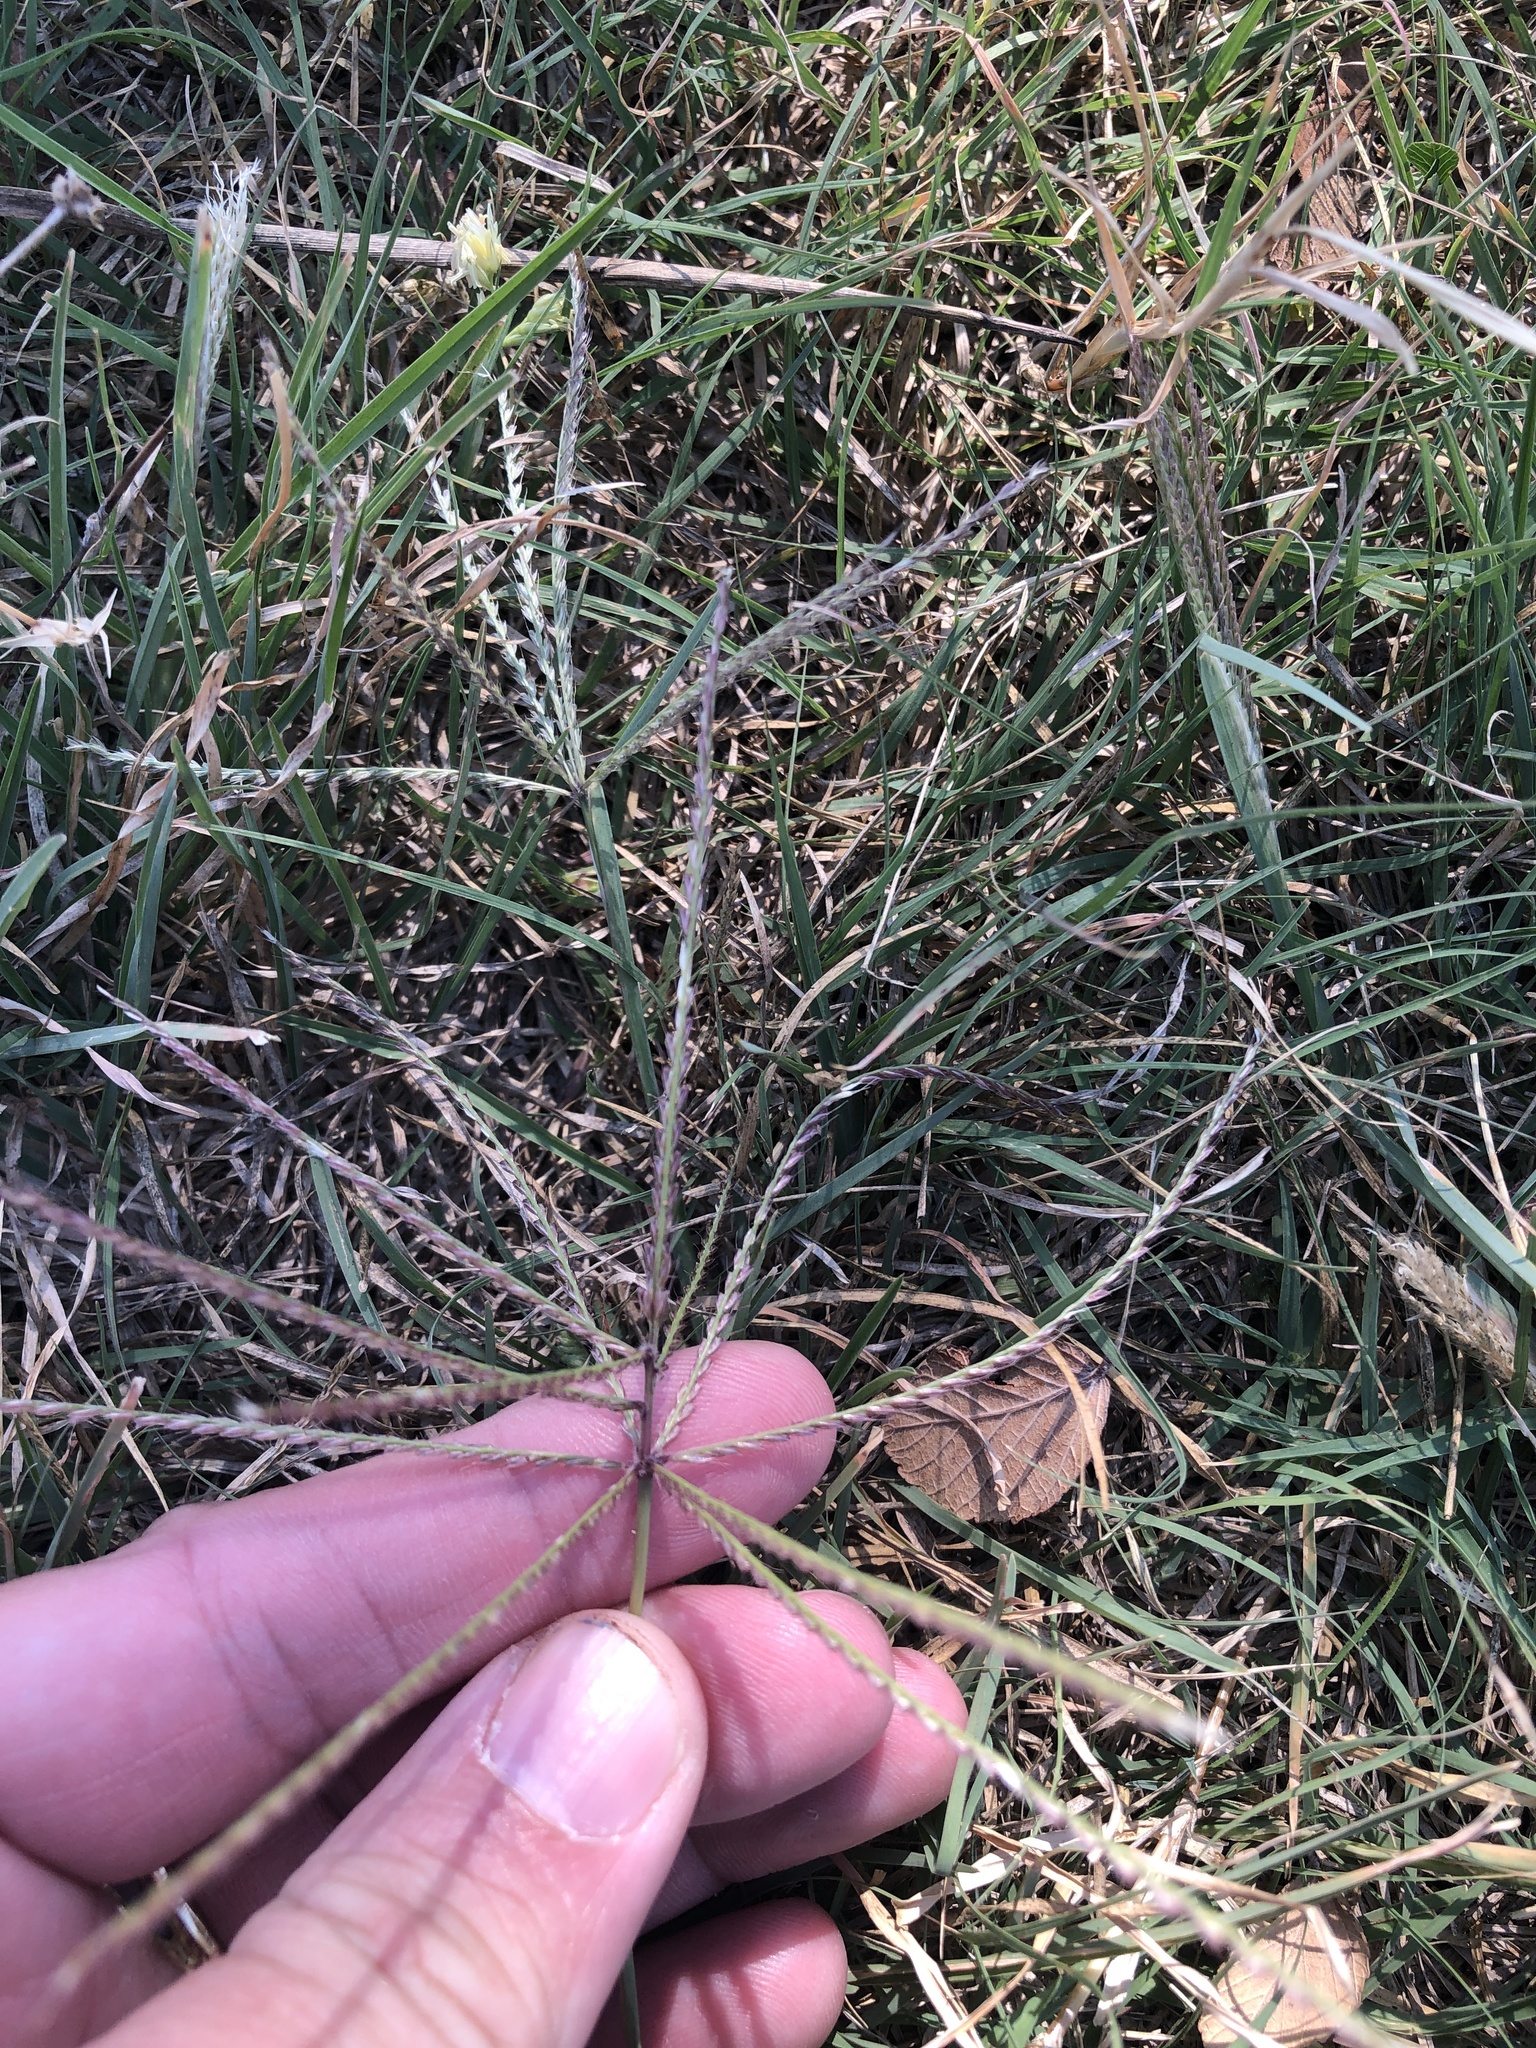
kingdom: Plantae
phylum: Tracheophyta
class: Liliopsida
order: Poales
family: Poaceae
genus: Chloris
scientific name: Chloris verticillata
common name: Tumble windmill grass
